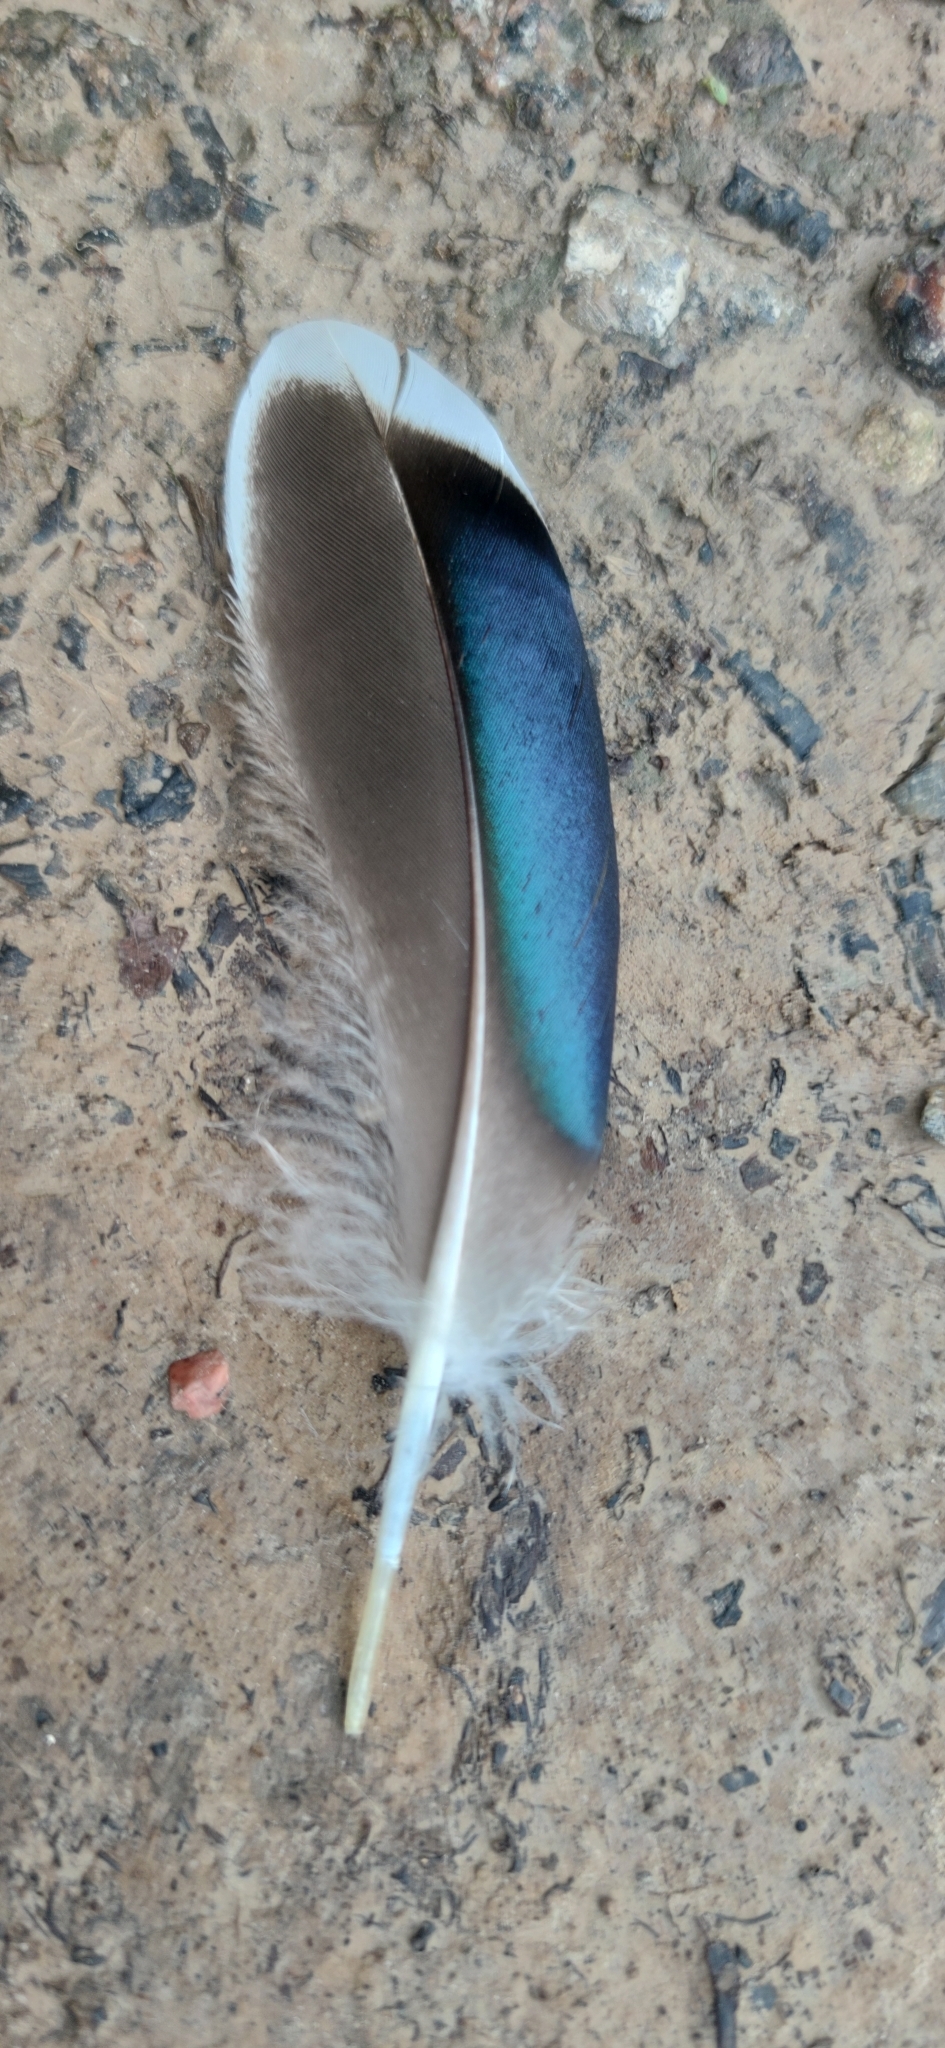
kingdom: Animalia
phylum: Chordata
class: Aves
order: Anseriformes
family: Anatidae
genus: Anas
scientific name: Anas platyrhynchos
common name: Mallard
